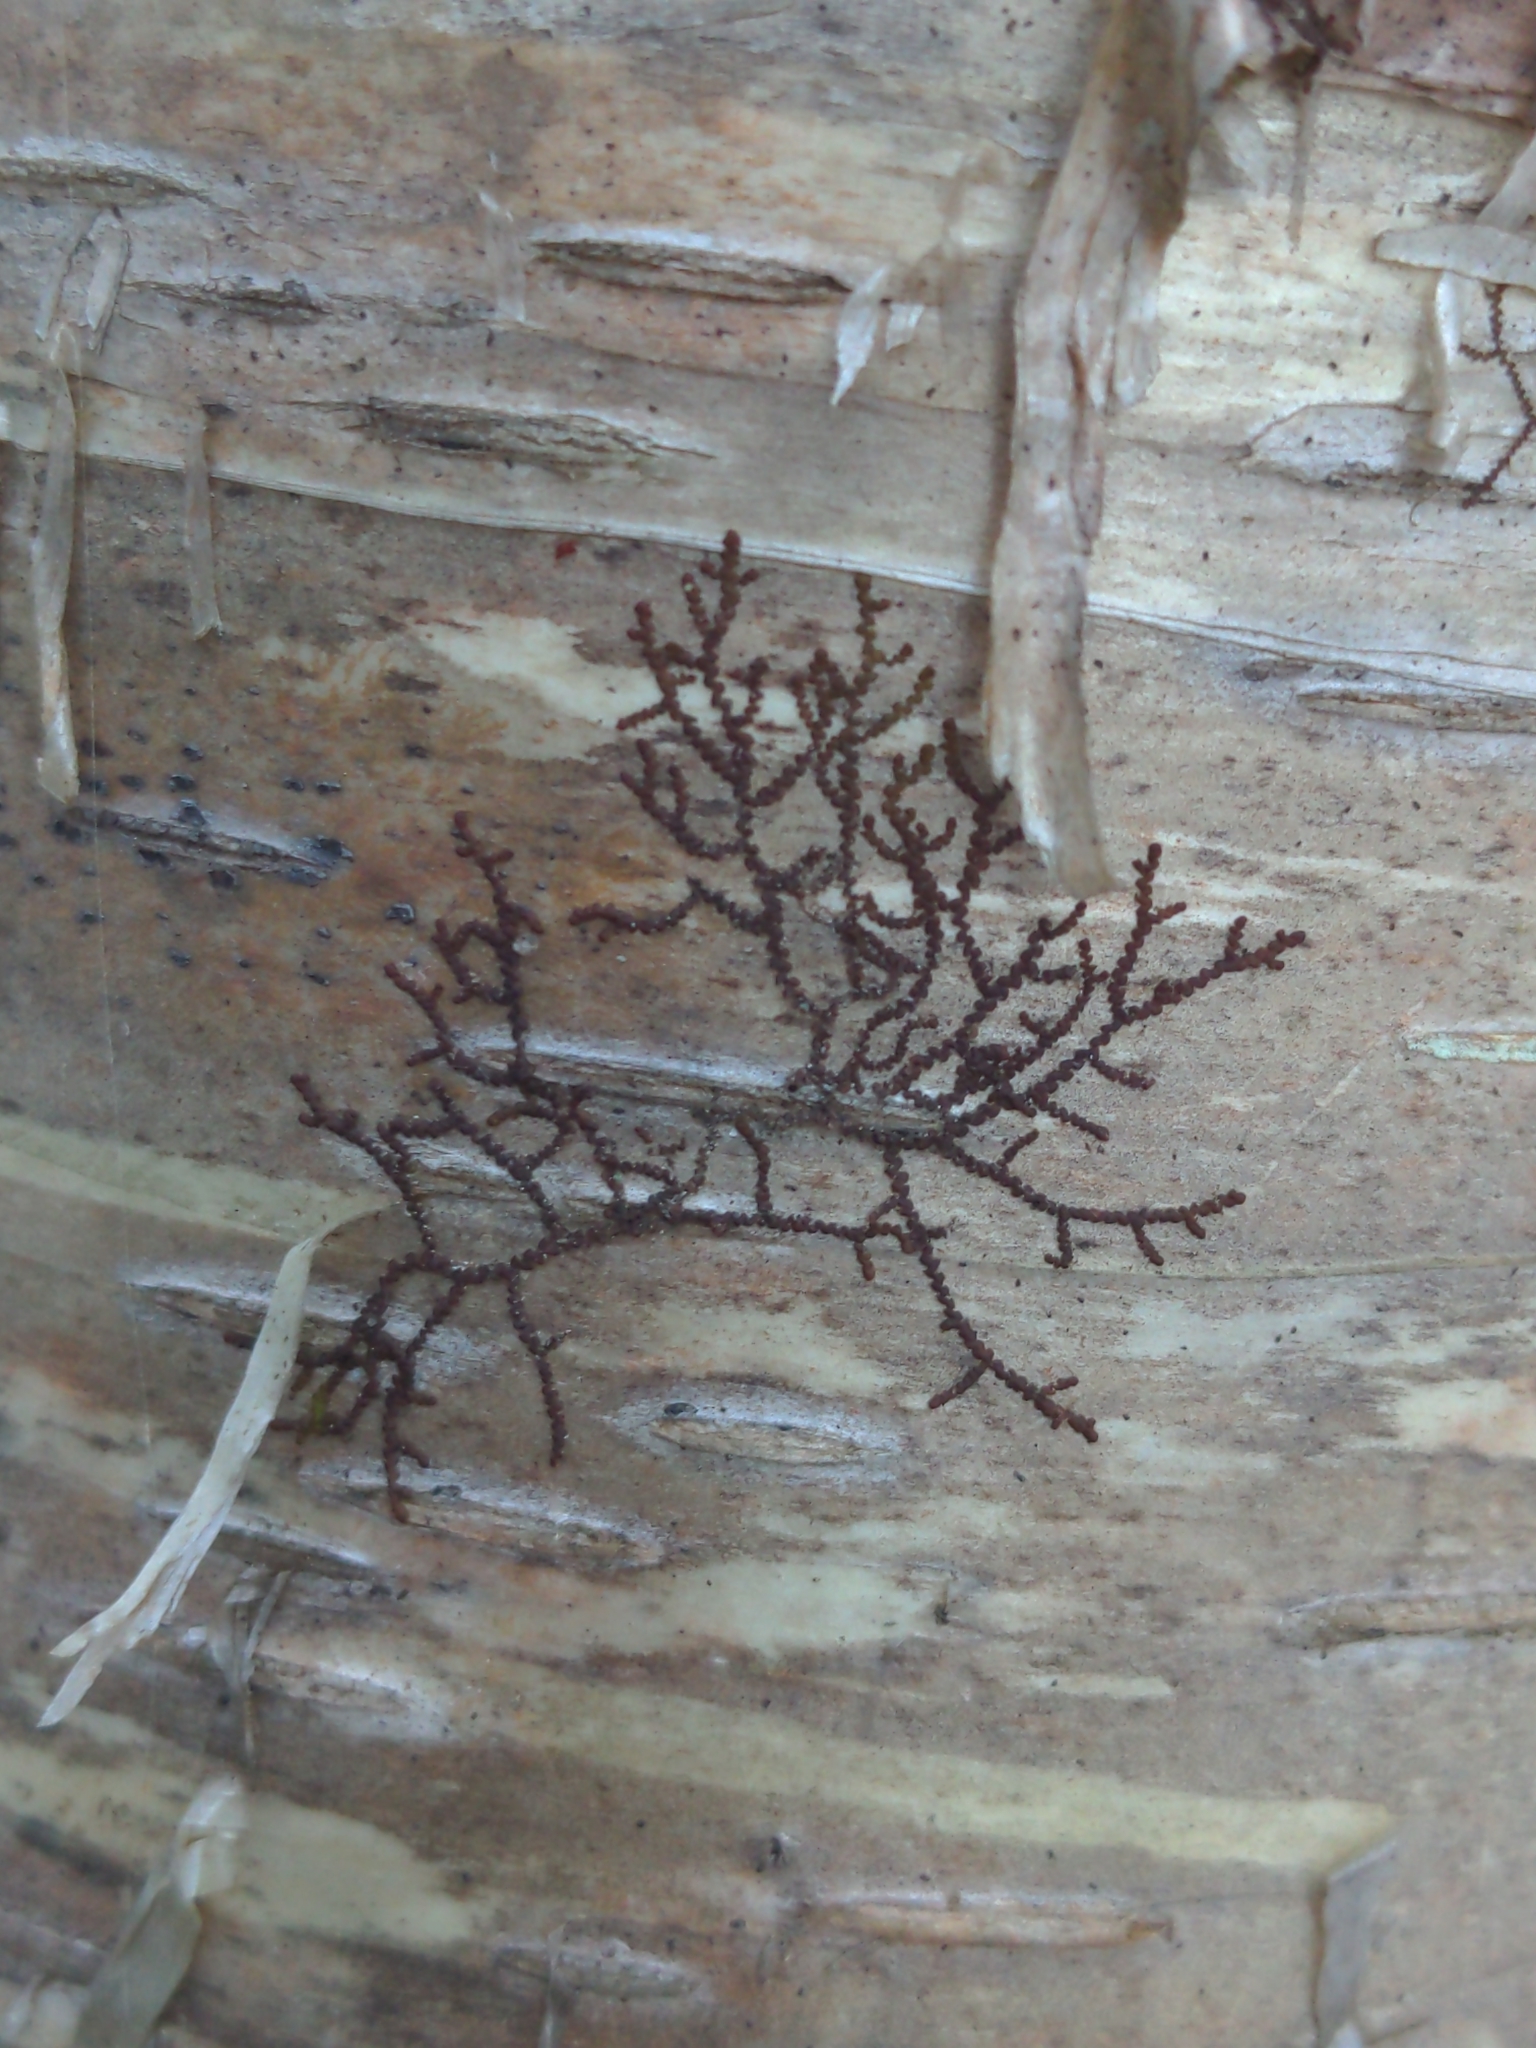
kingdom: Plantae
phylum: Marchantiophyta
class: Jungermanniopsida
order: Porellales
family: Frullaniaceae
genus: Frullania
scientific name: Frullania eboracensis
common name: New york scalewort
